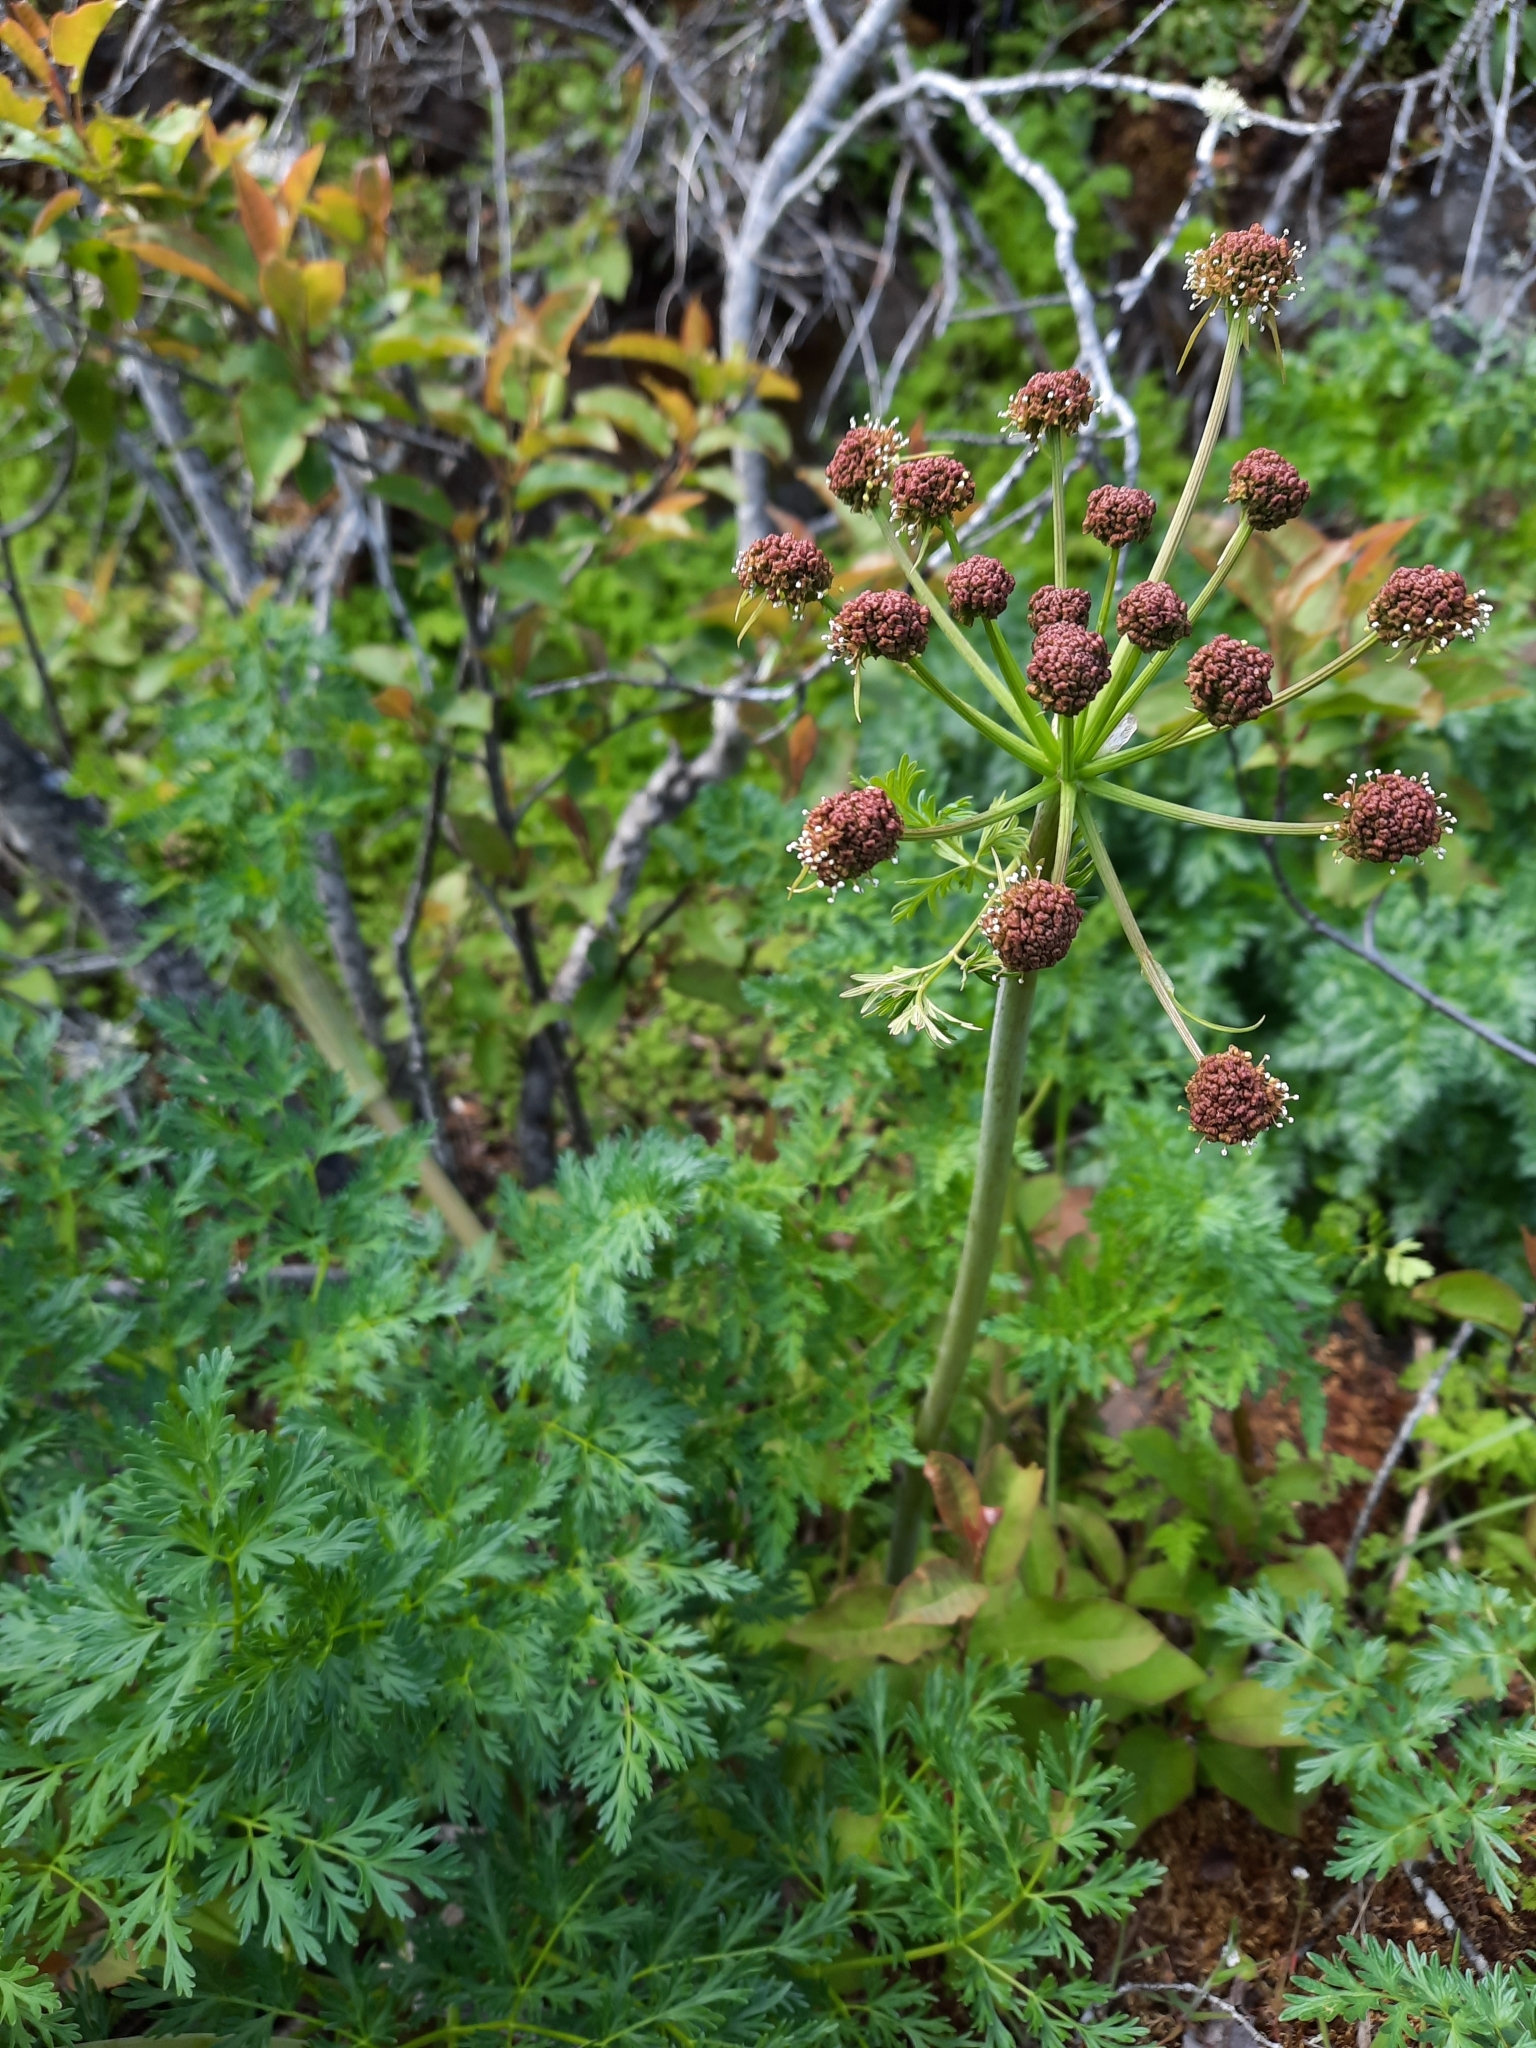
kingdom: Plantae
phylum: Tracheophyta
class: Magnoliopsida
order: Apiales
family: Apiaceae
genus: Lomatium
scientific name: Lomatium dissectum
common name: Lomatium
